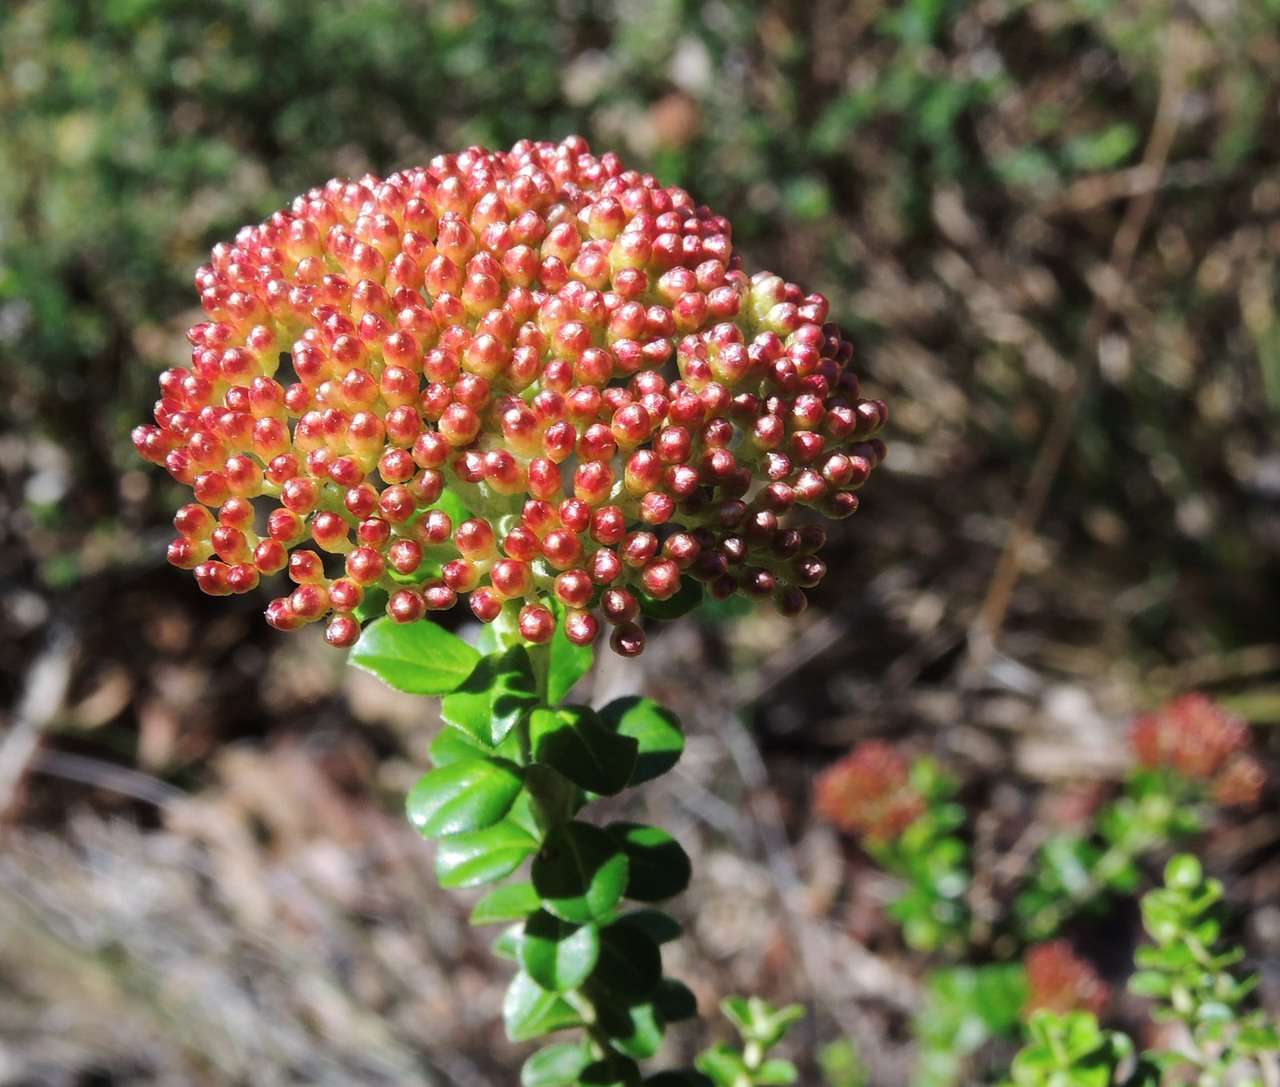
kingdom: Plantae
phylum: Tracheophyta
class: Magnoliopsida
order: Asterales
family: Asteraceae
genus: Ozothamnus
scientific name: Ozothamnus obcordatus
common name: Grey everlasting
